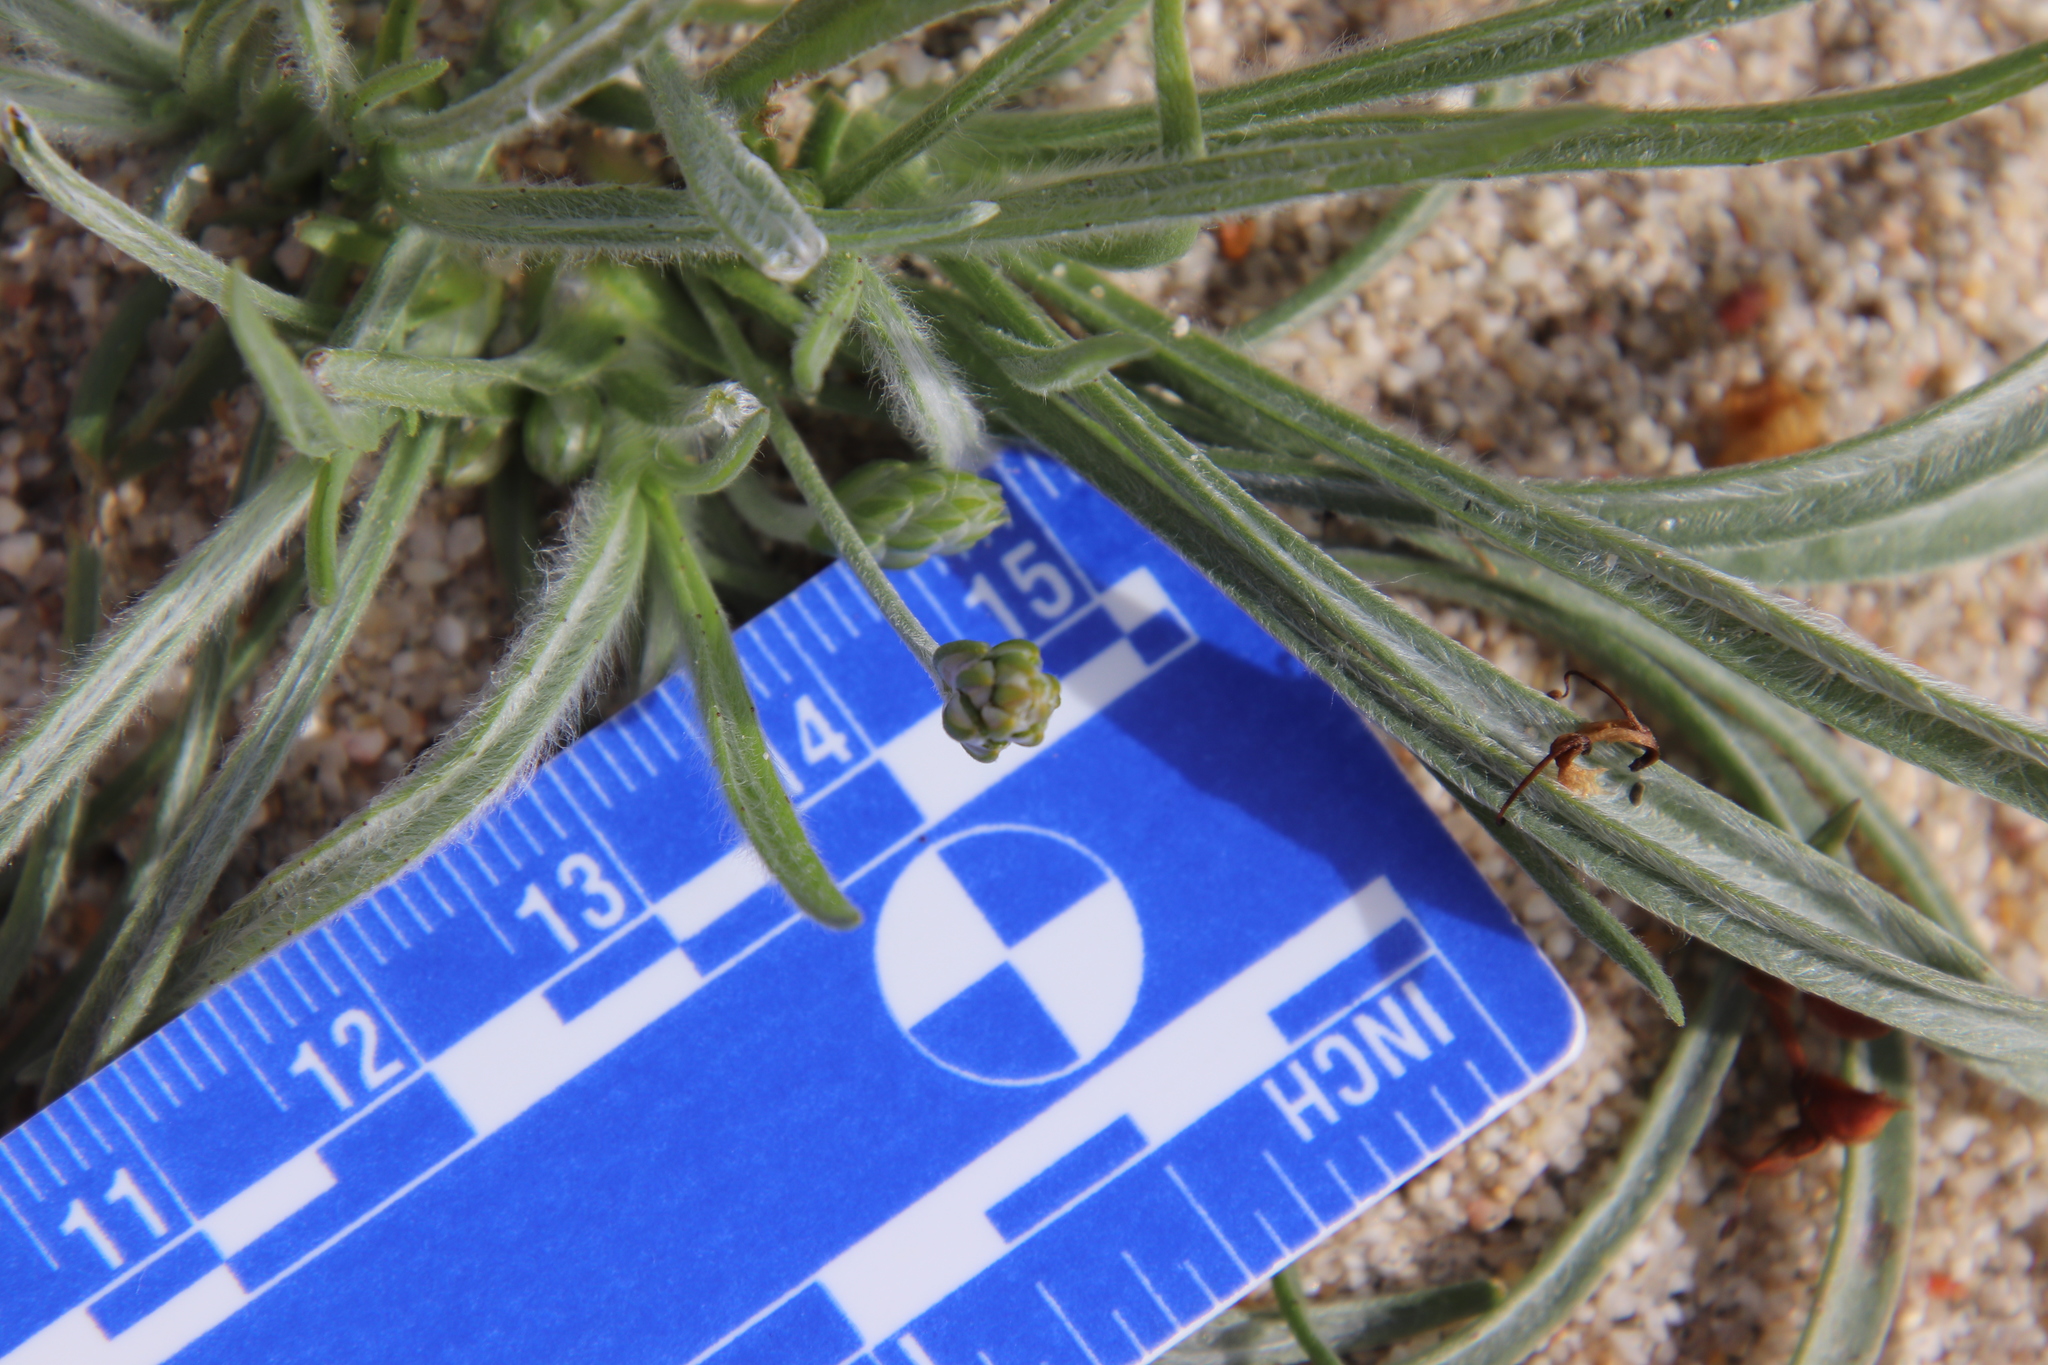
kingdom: Plantae
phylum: Tracheophyta
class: Magnoliopsida
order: Lamiales
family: Plantaginaceae
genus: Plantago
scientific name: Plantago ovata
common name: Blond plantain
